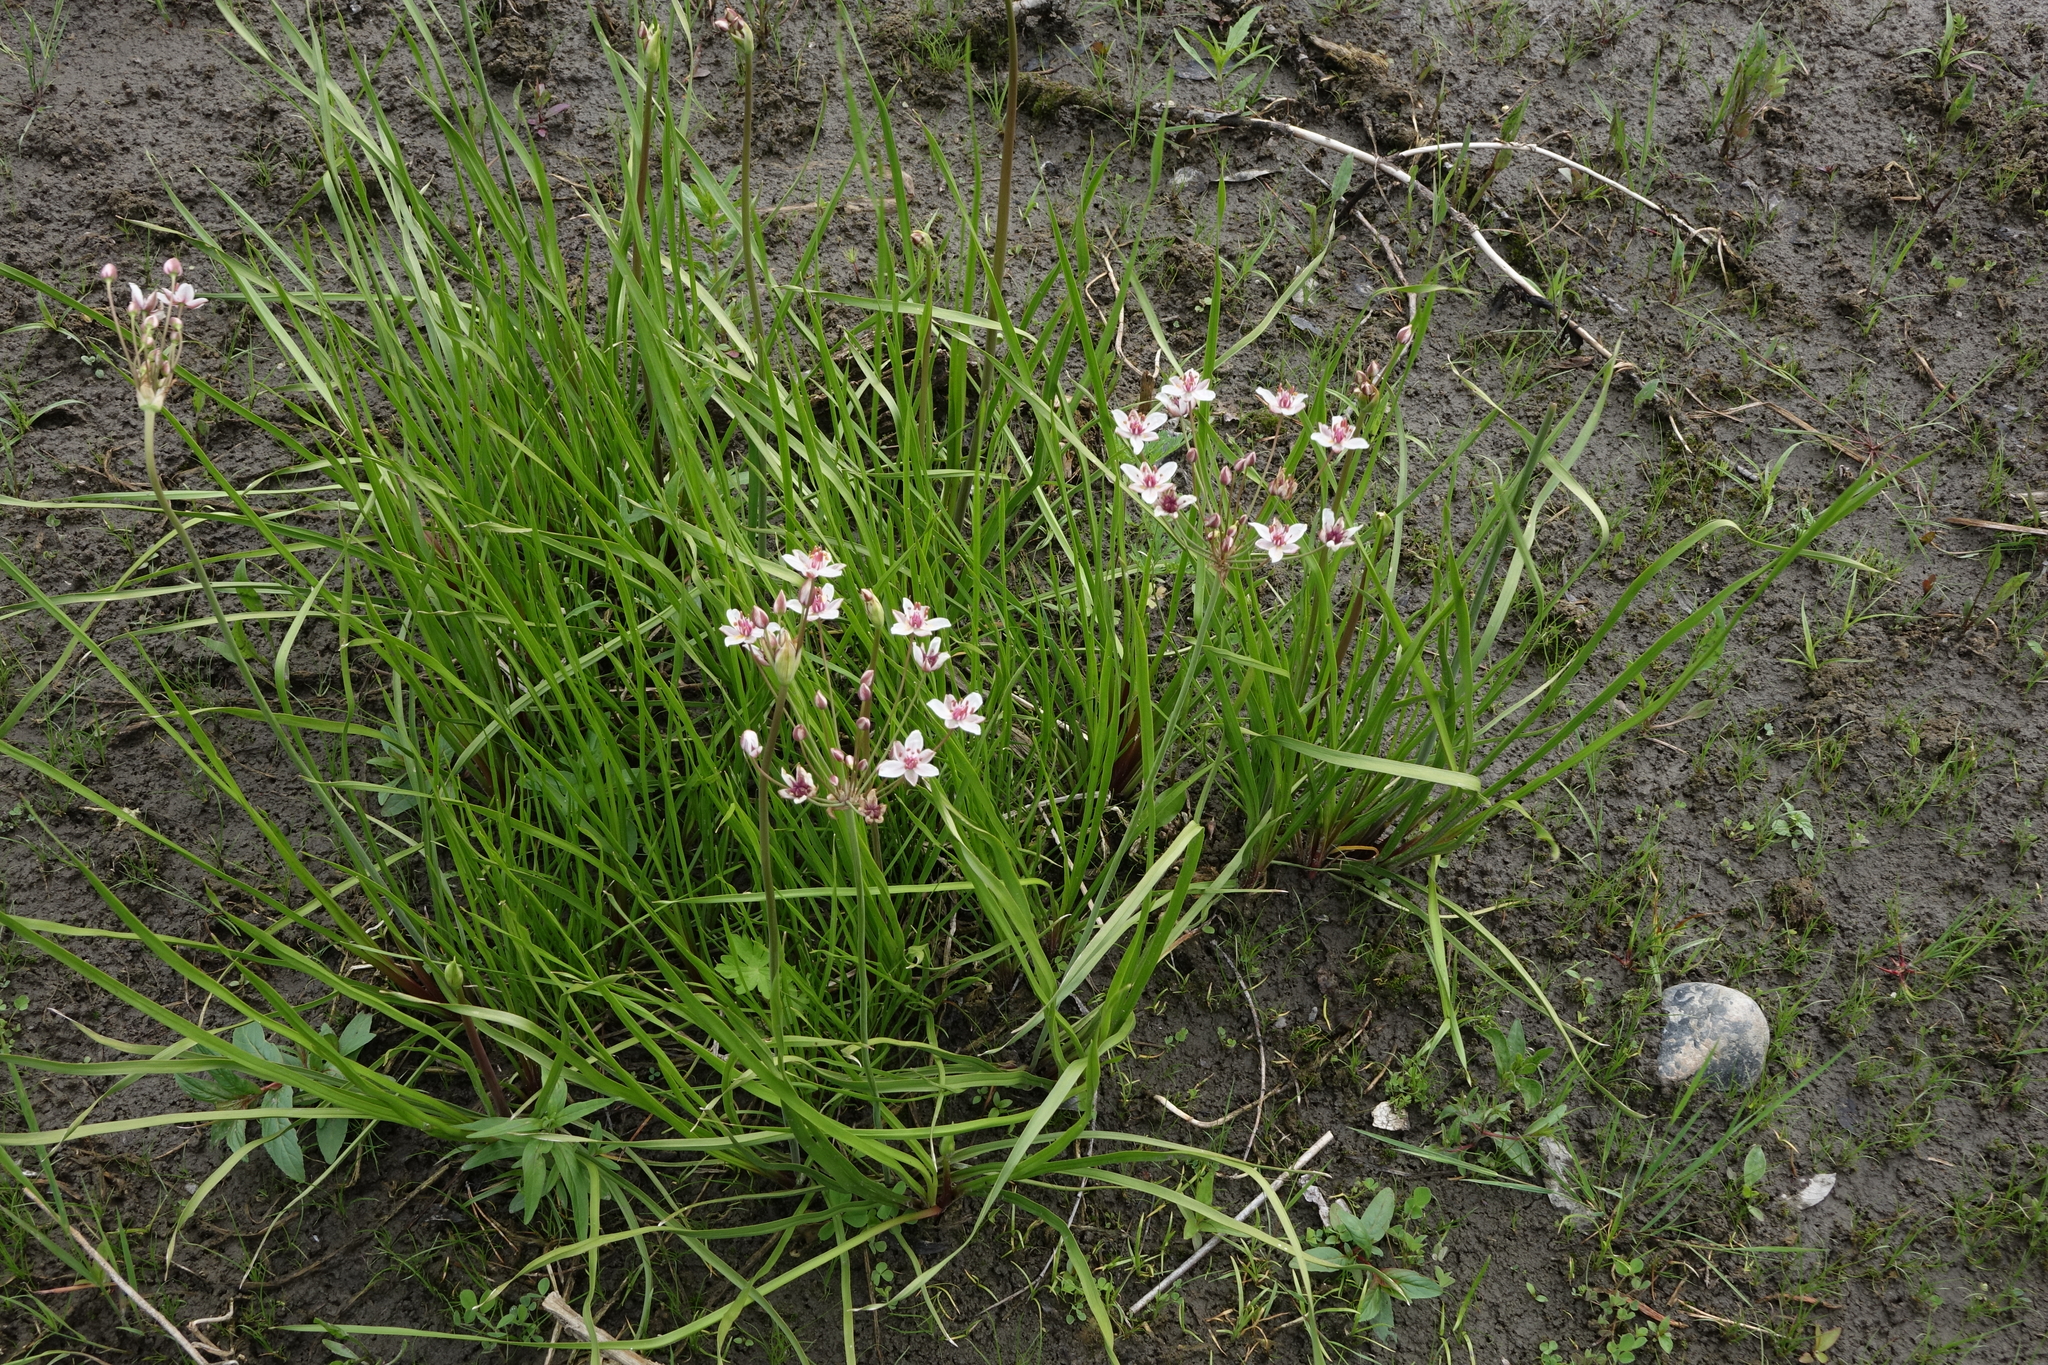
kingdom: Plantae
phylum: Tracheophyta
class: Liliopsida
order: Alismatales
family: Butomaceae
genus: Butomus
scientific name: Butomus umbellatus
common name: Flowering-rush
